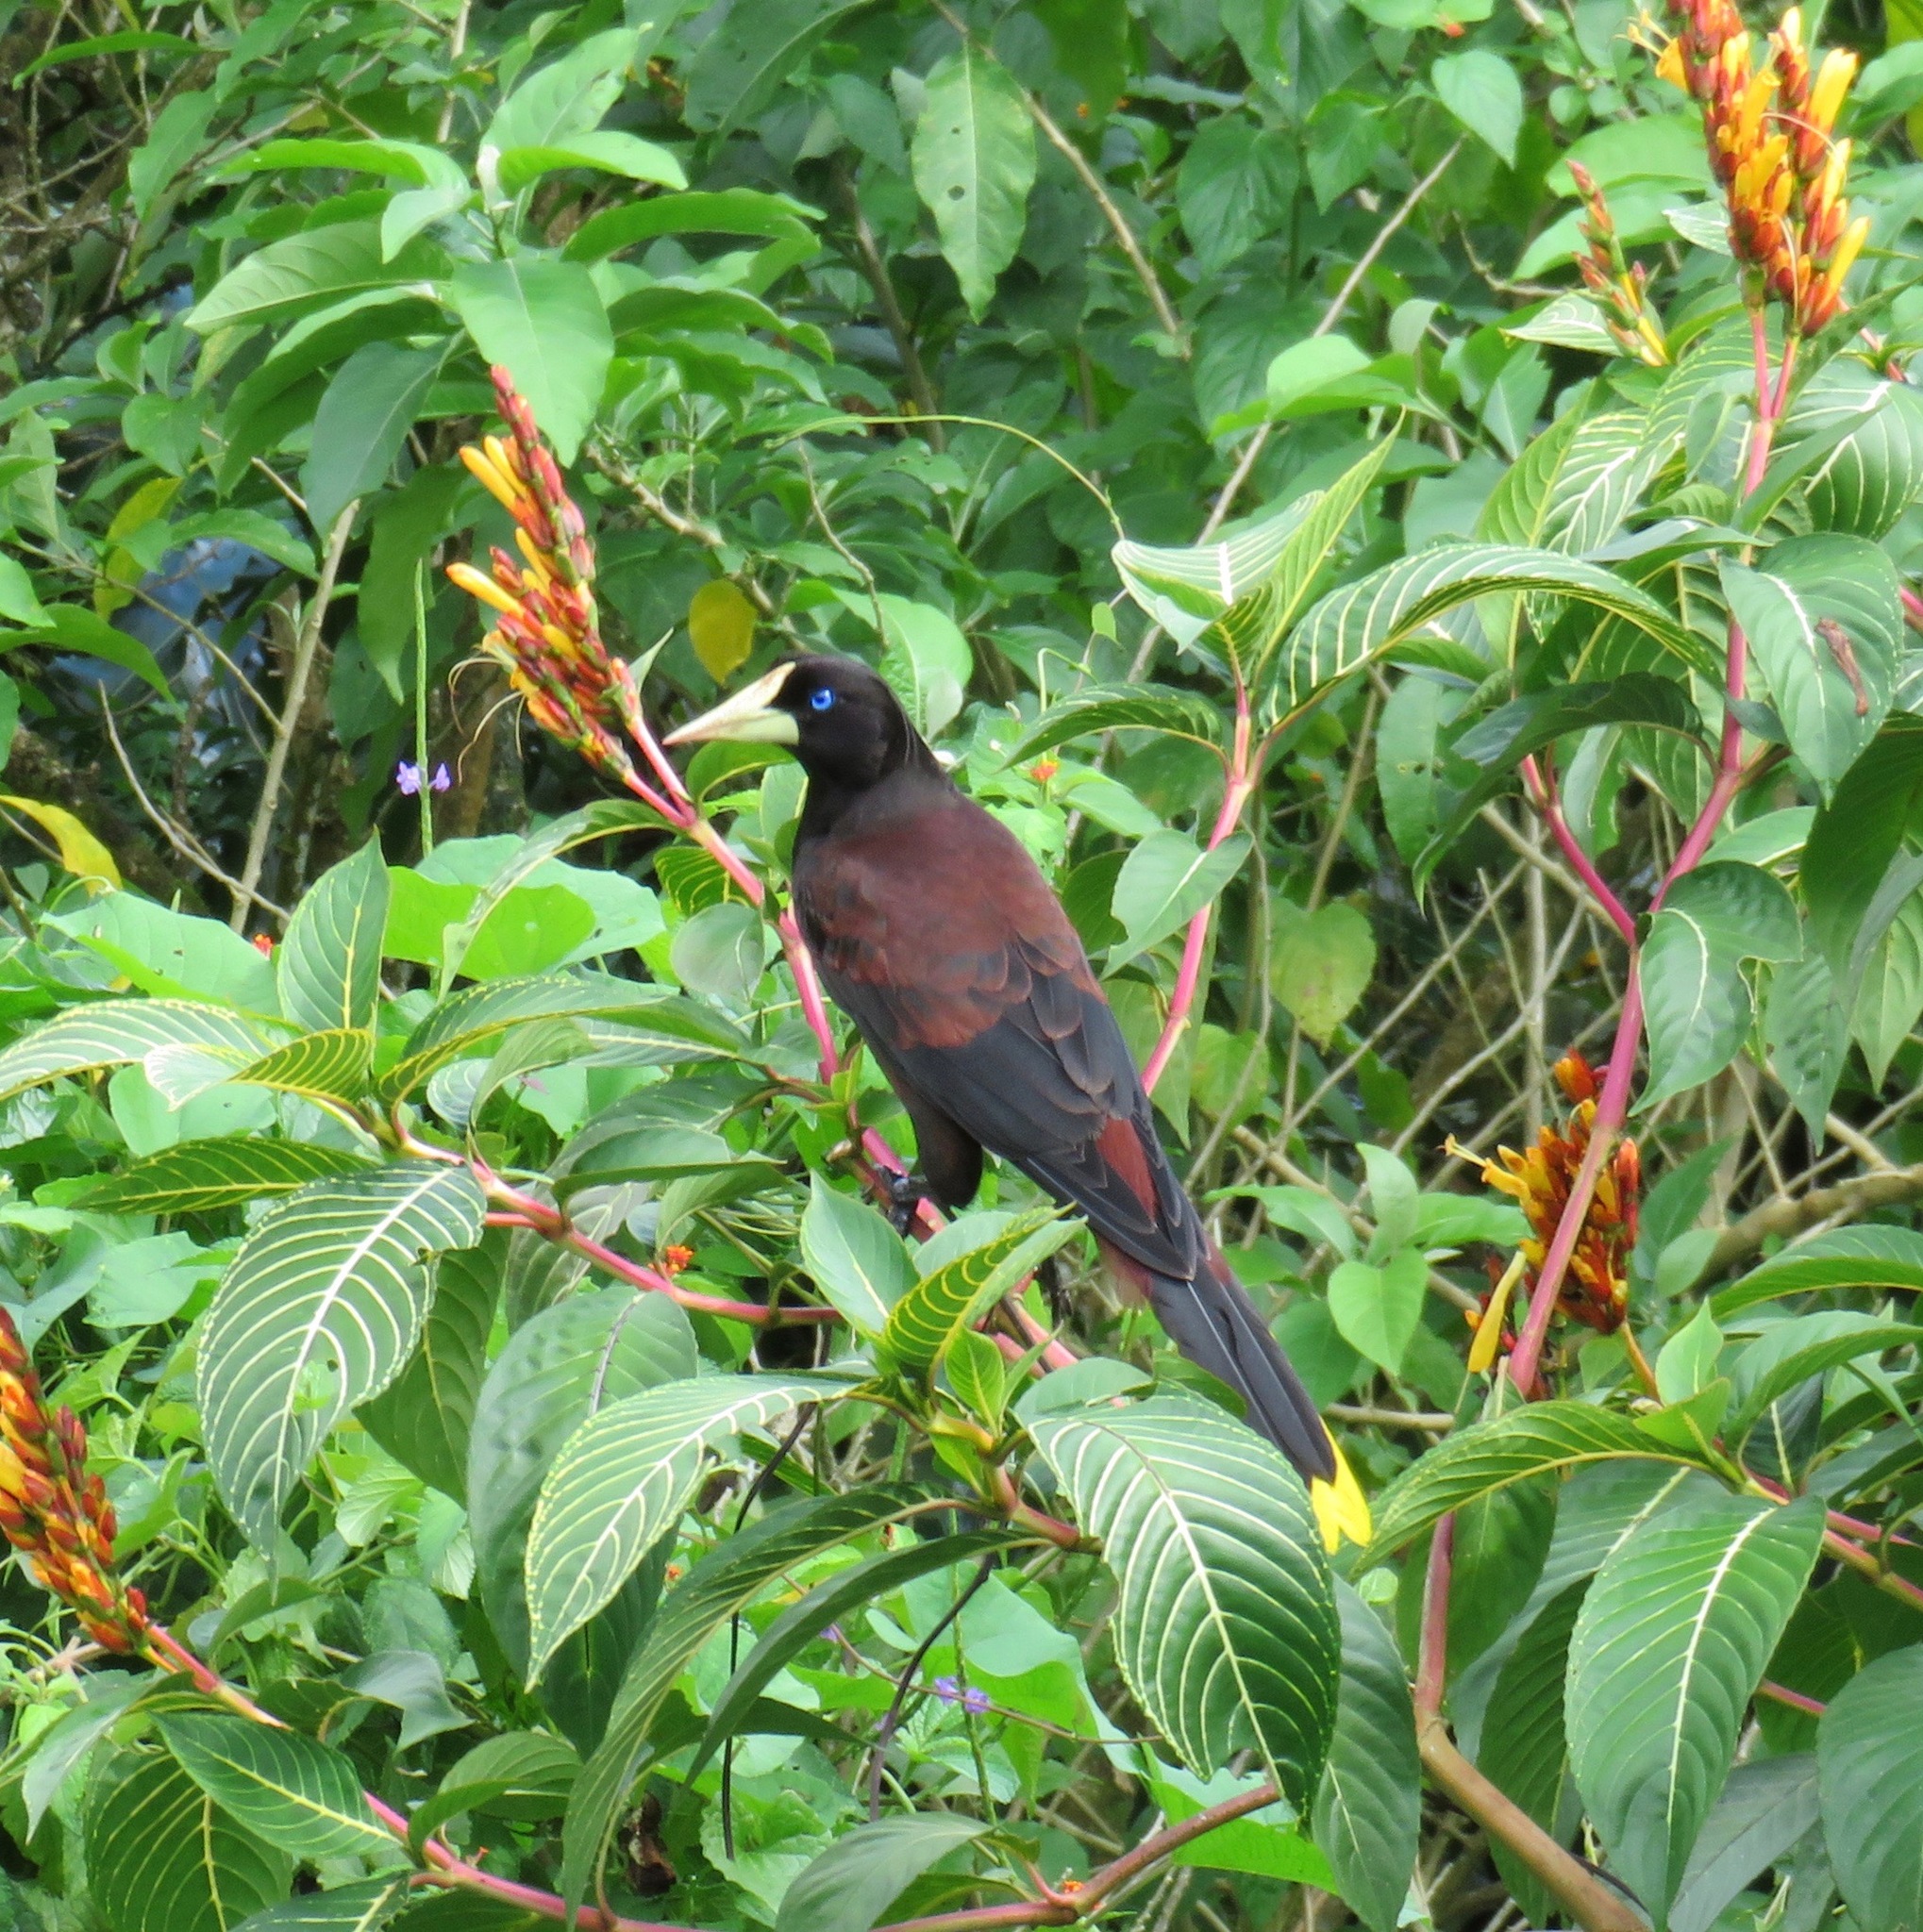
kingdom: Animalia
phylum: Chordata
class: Aves
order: Passeriformes
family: Icteridae
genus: Psarocolius
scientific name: Psarocolius decumanus
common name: Crested oropendola
